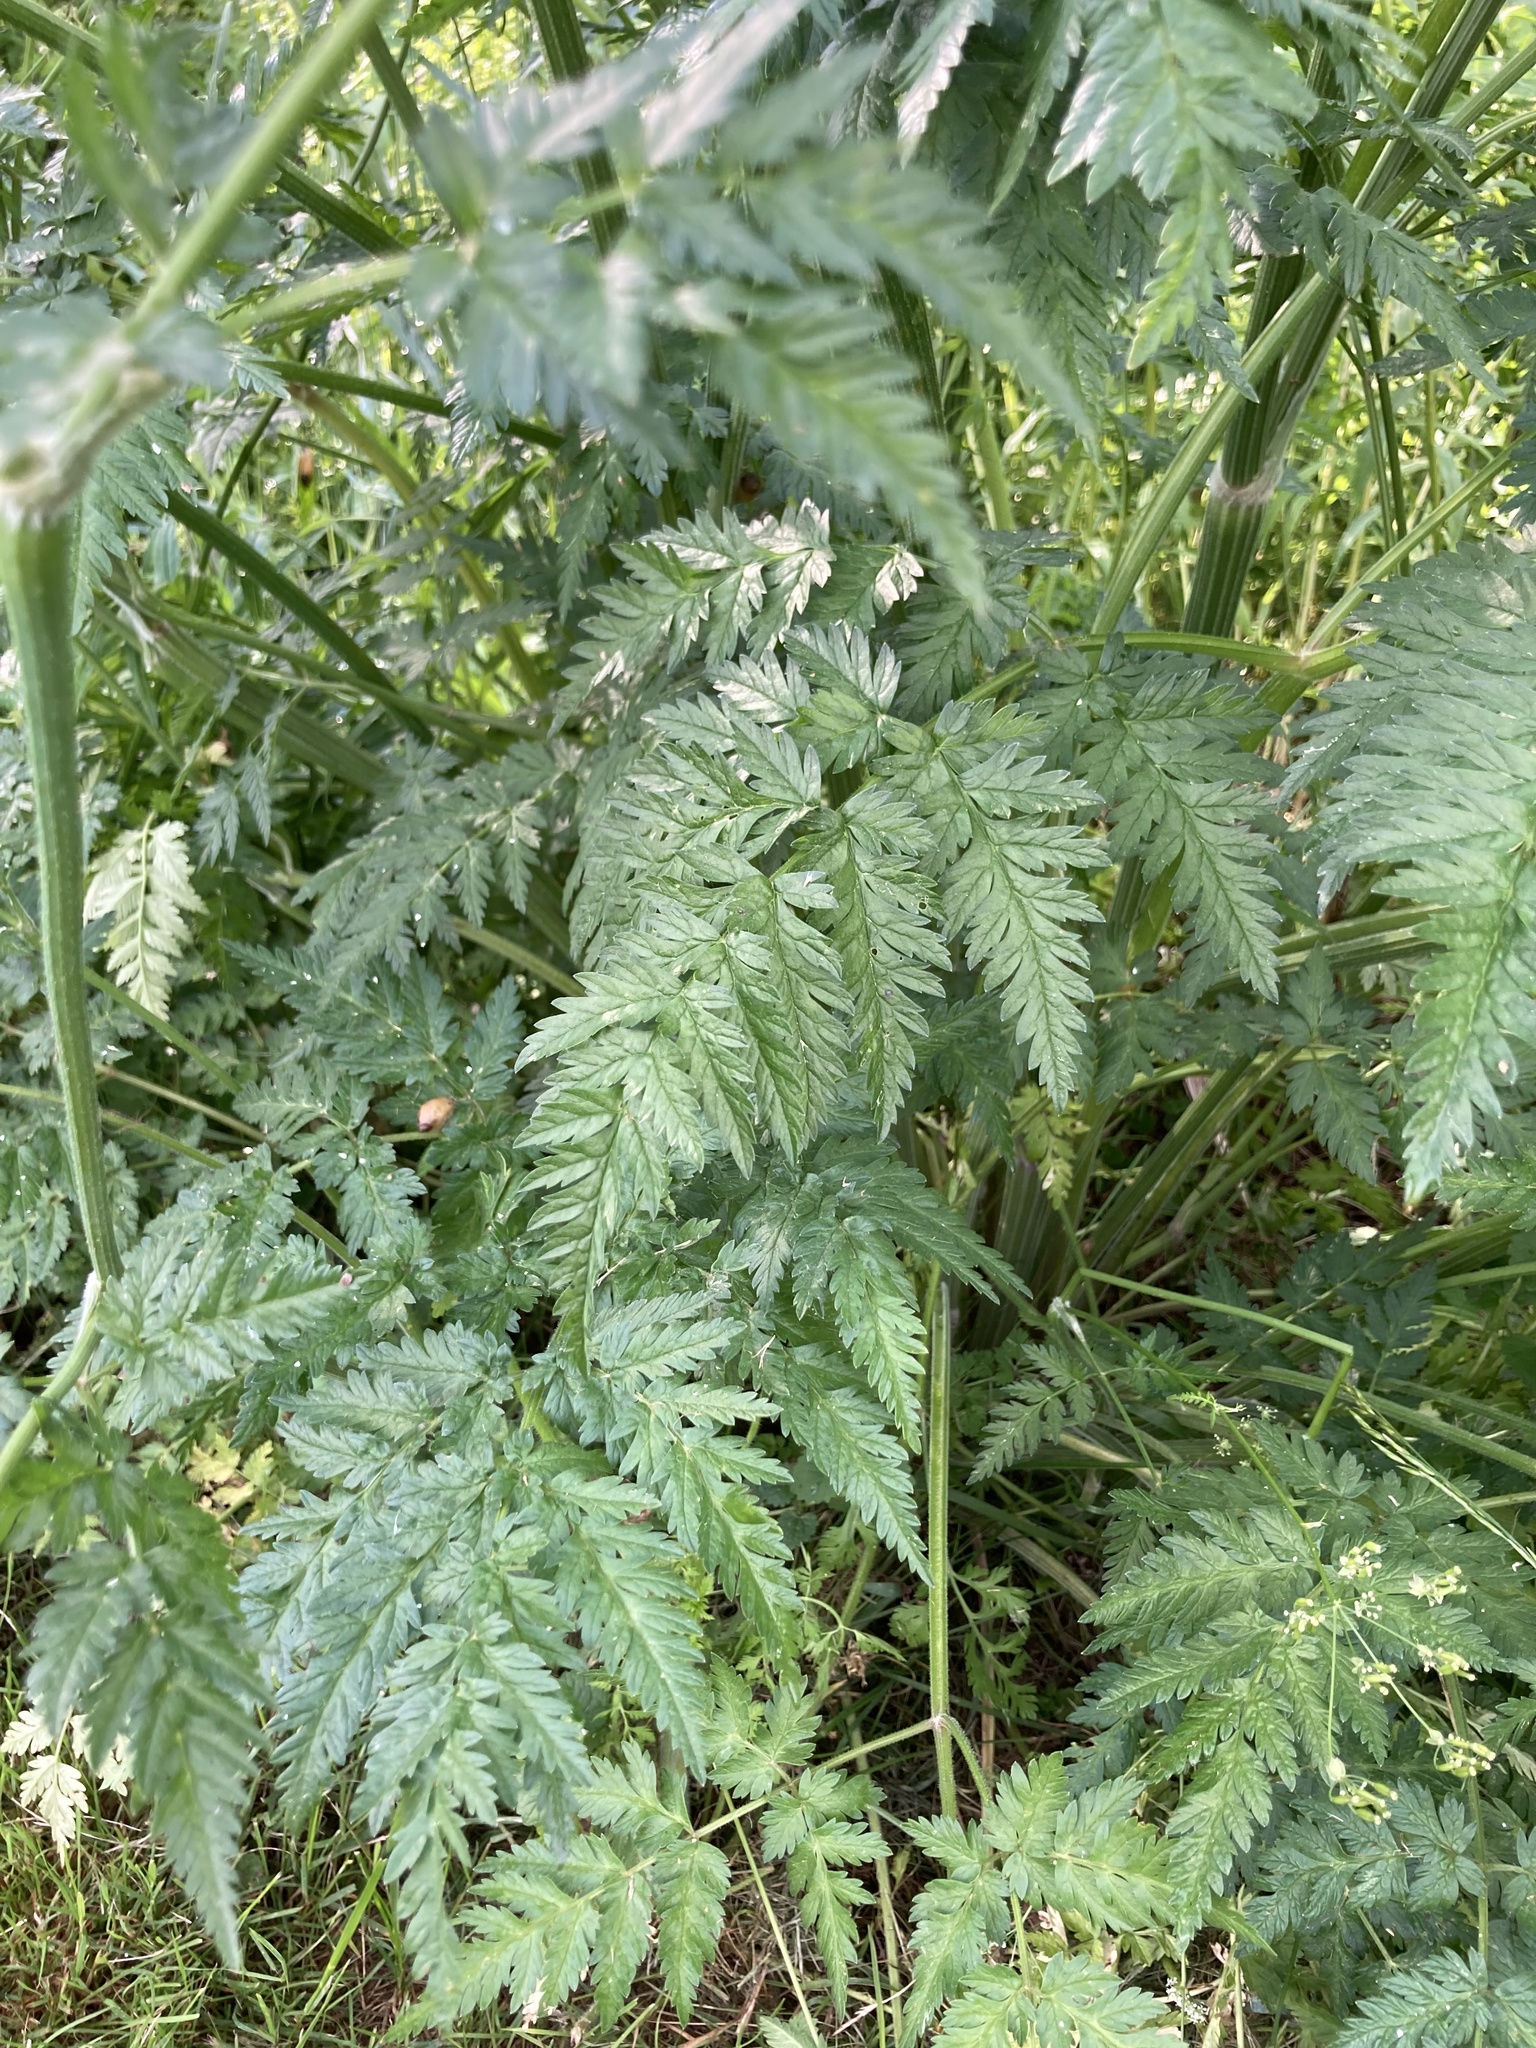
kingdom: Plantae
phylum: Tracheophyta
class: Magnoliopsida
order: Apiales
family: Apiaceae
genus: Anthriscus
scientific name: Anthriscus sylvestris
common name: Cow parsley
